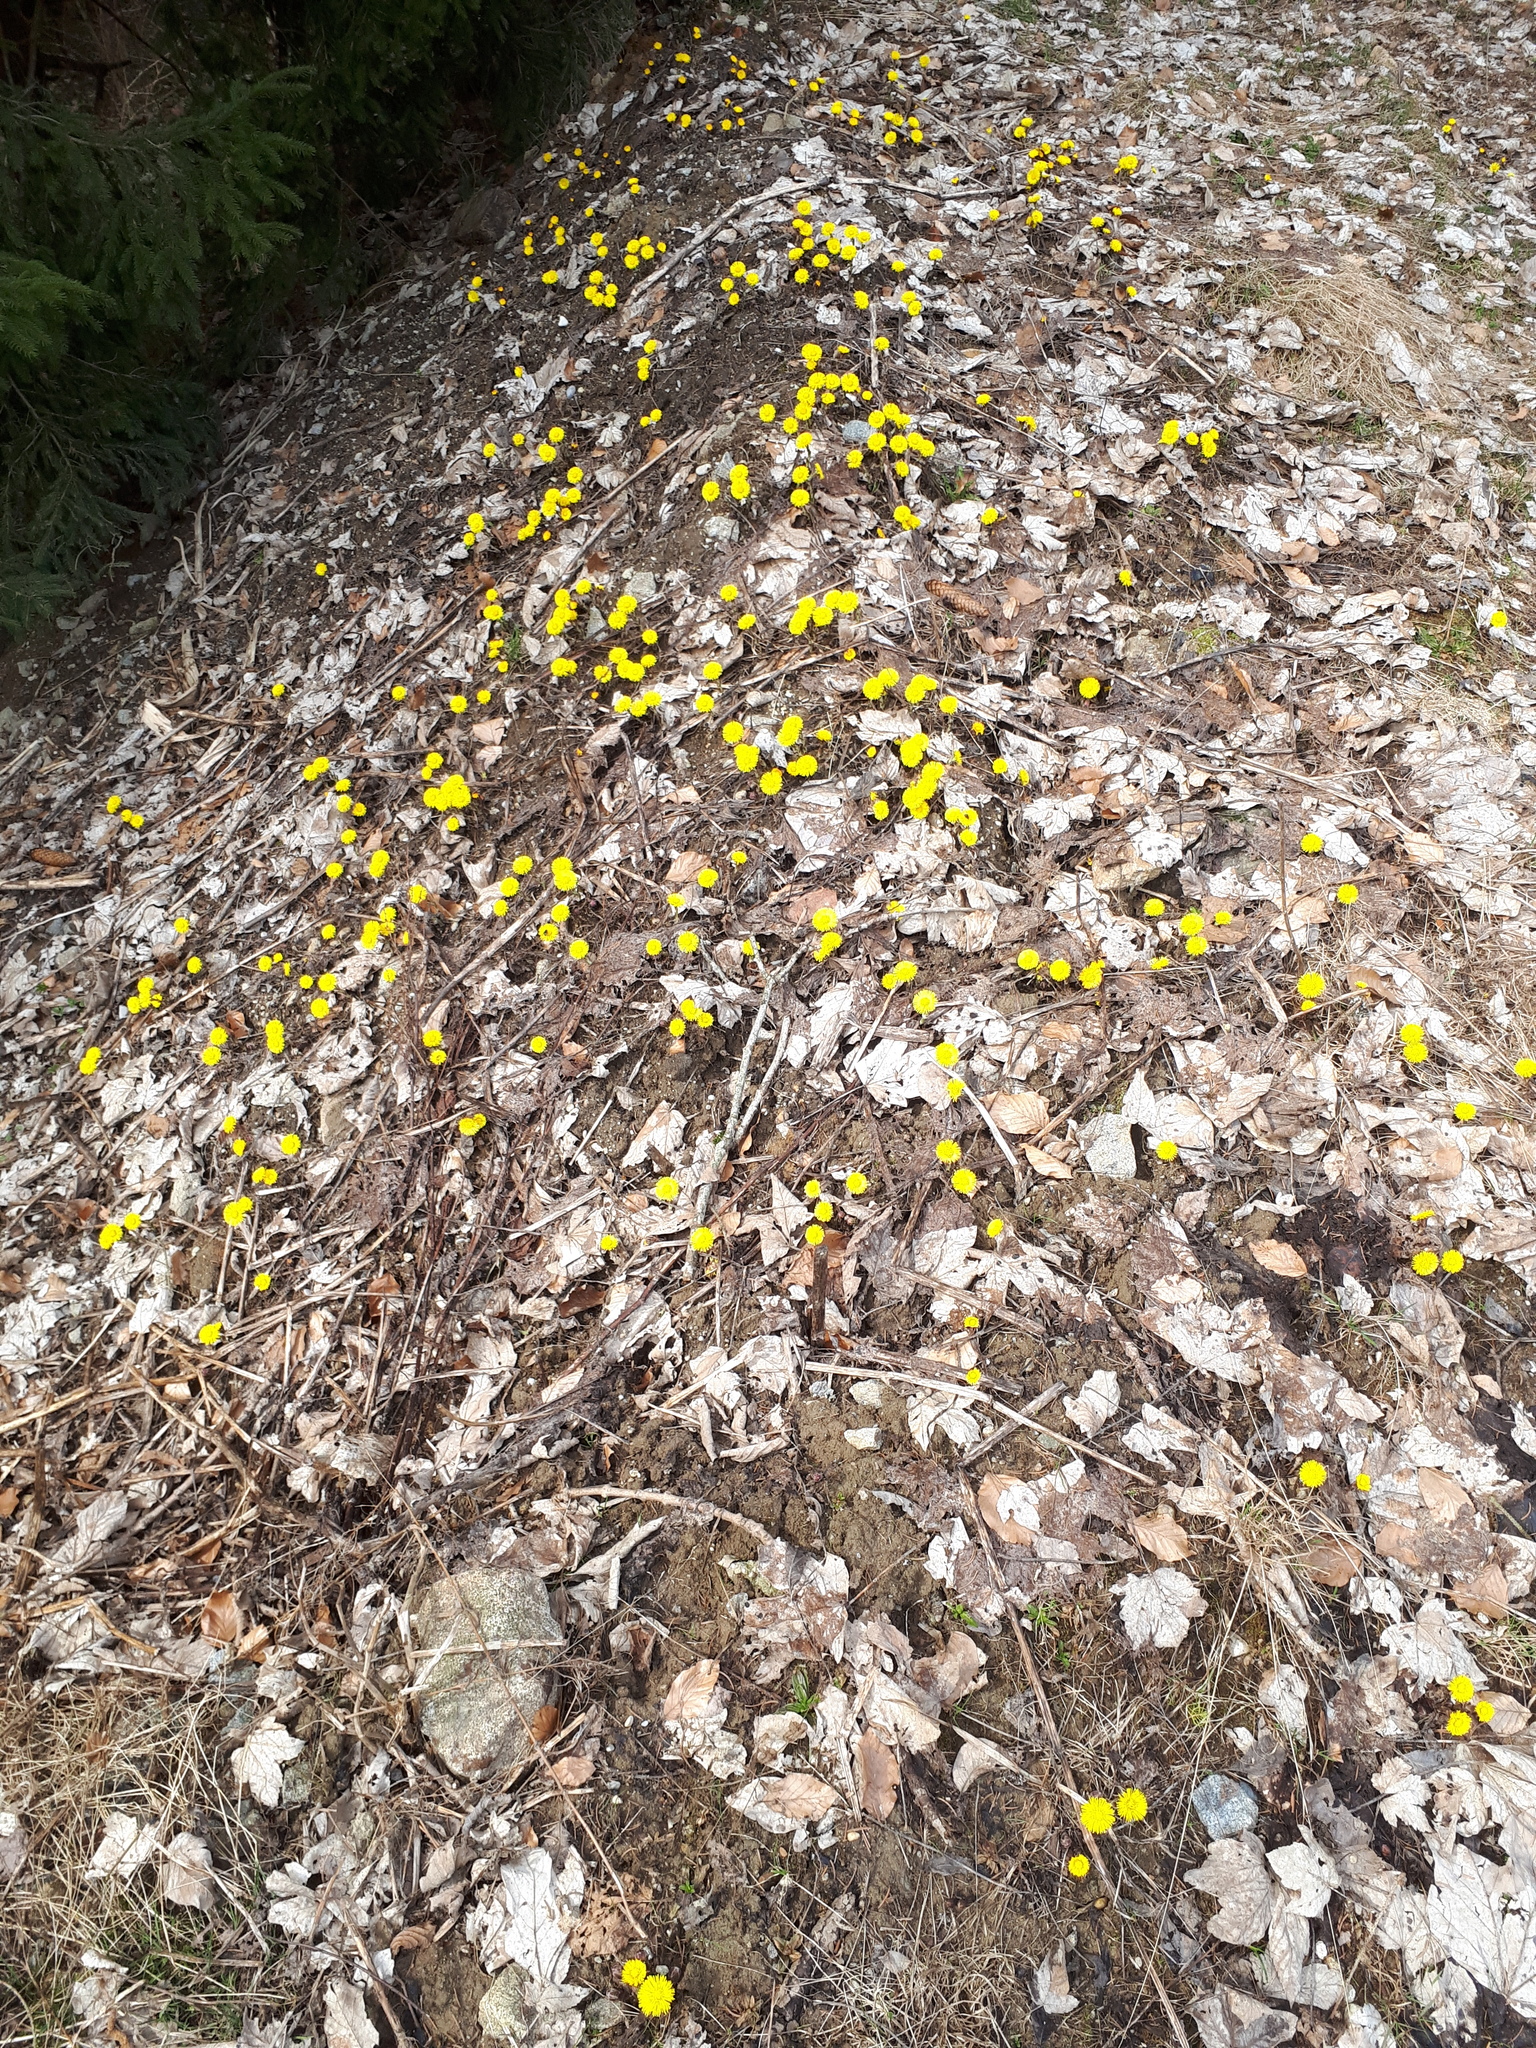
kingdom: Plantae
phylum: Tracheophyta
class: Magnoliopsida
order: Asterales
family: Asteraceae
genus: Tussilago
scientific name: Tussilago farfara
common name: Coltsfoot
